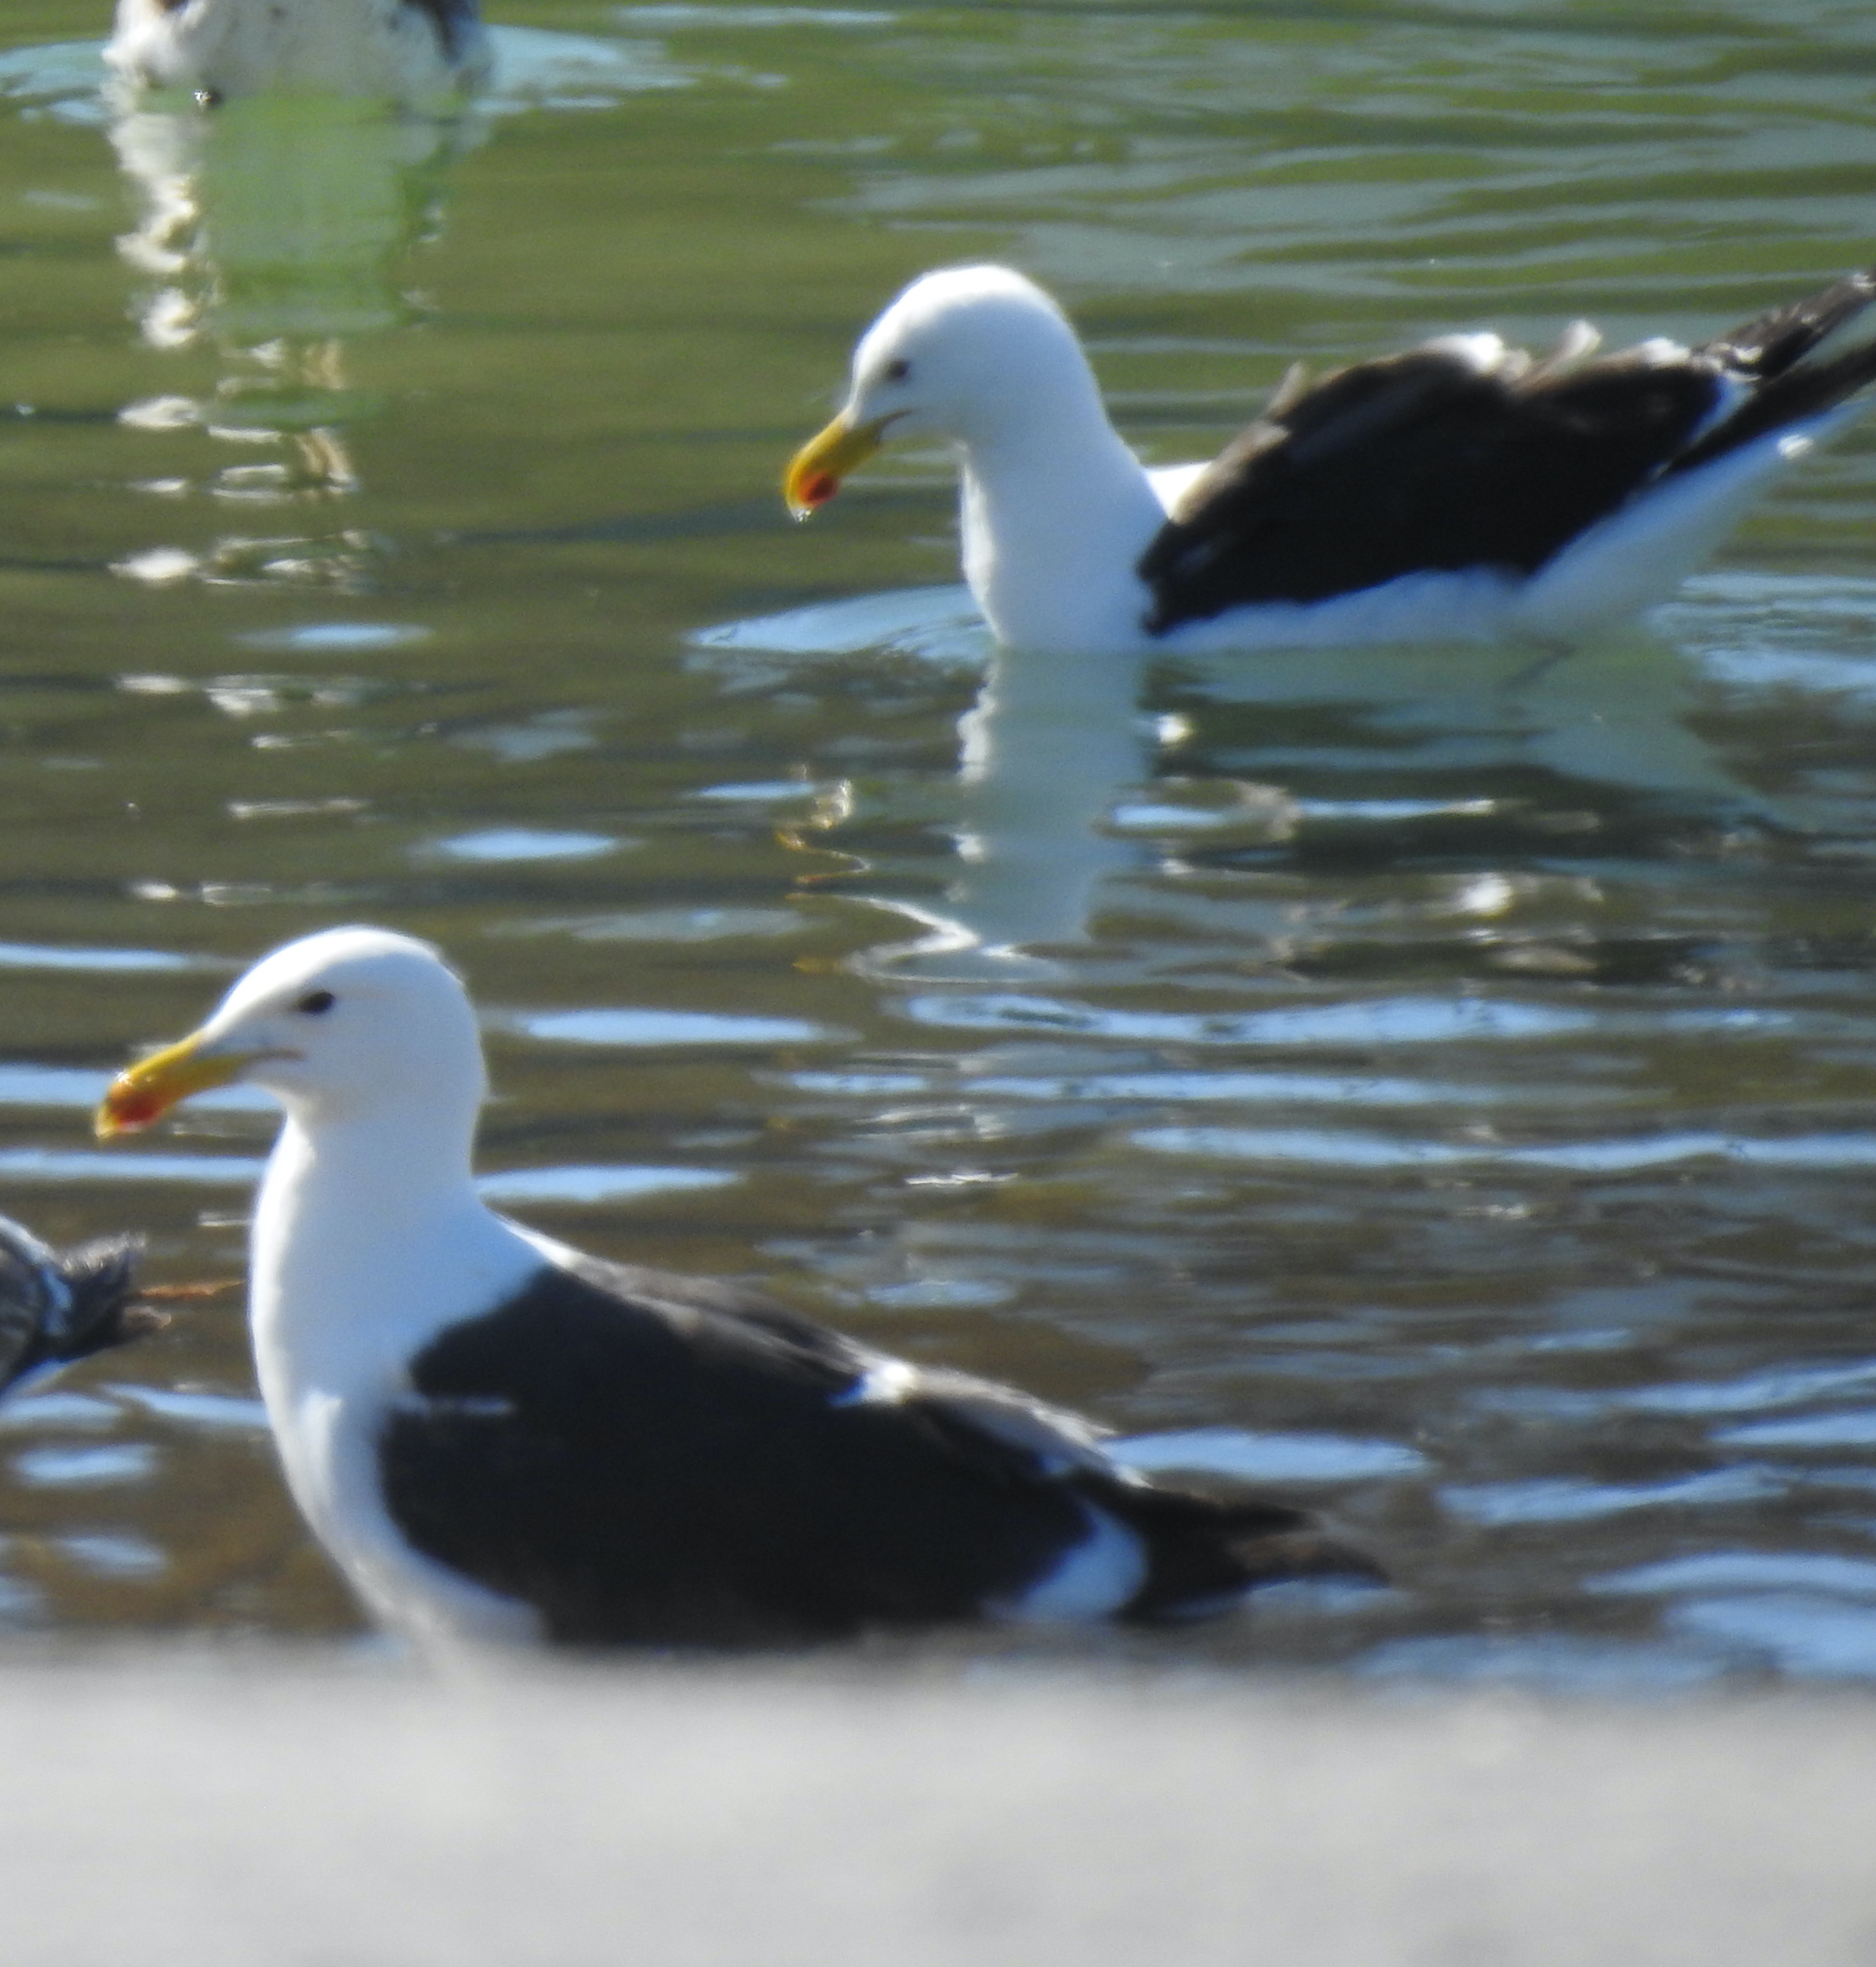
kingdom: Animalia
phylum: Chordata
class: Aves
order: Charadriiformes
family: Laridae
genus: Larus
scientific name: Larus dominicanus
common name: Kelp gull
